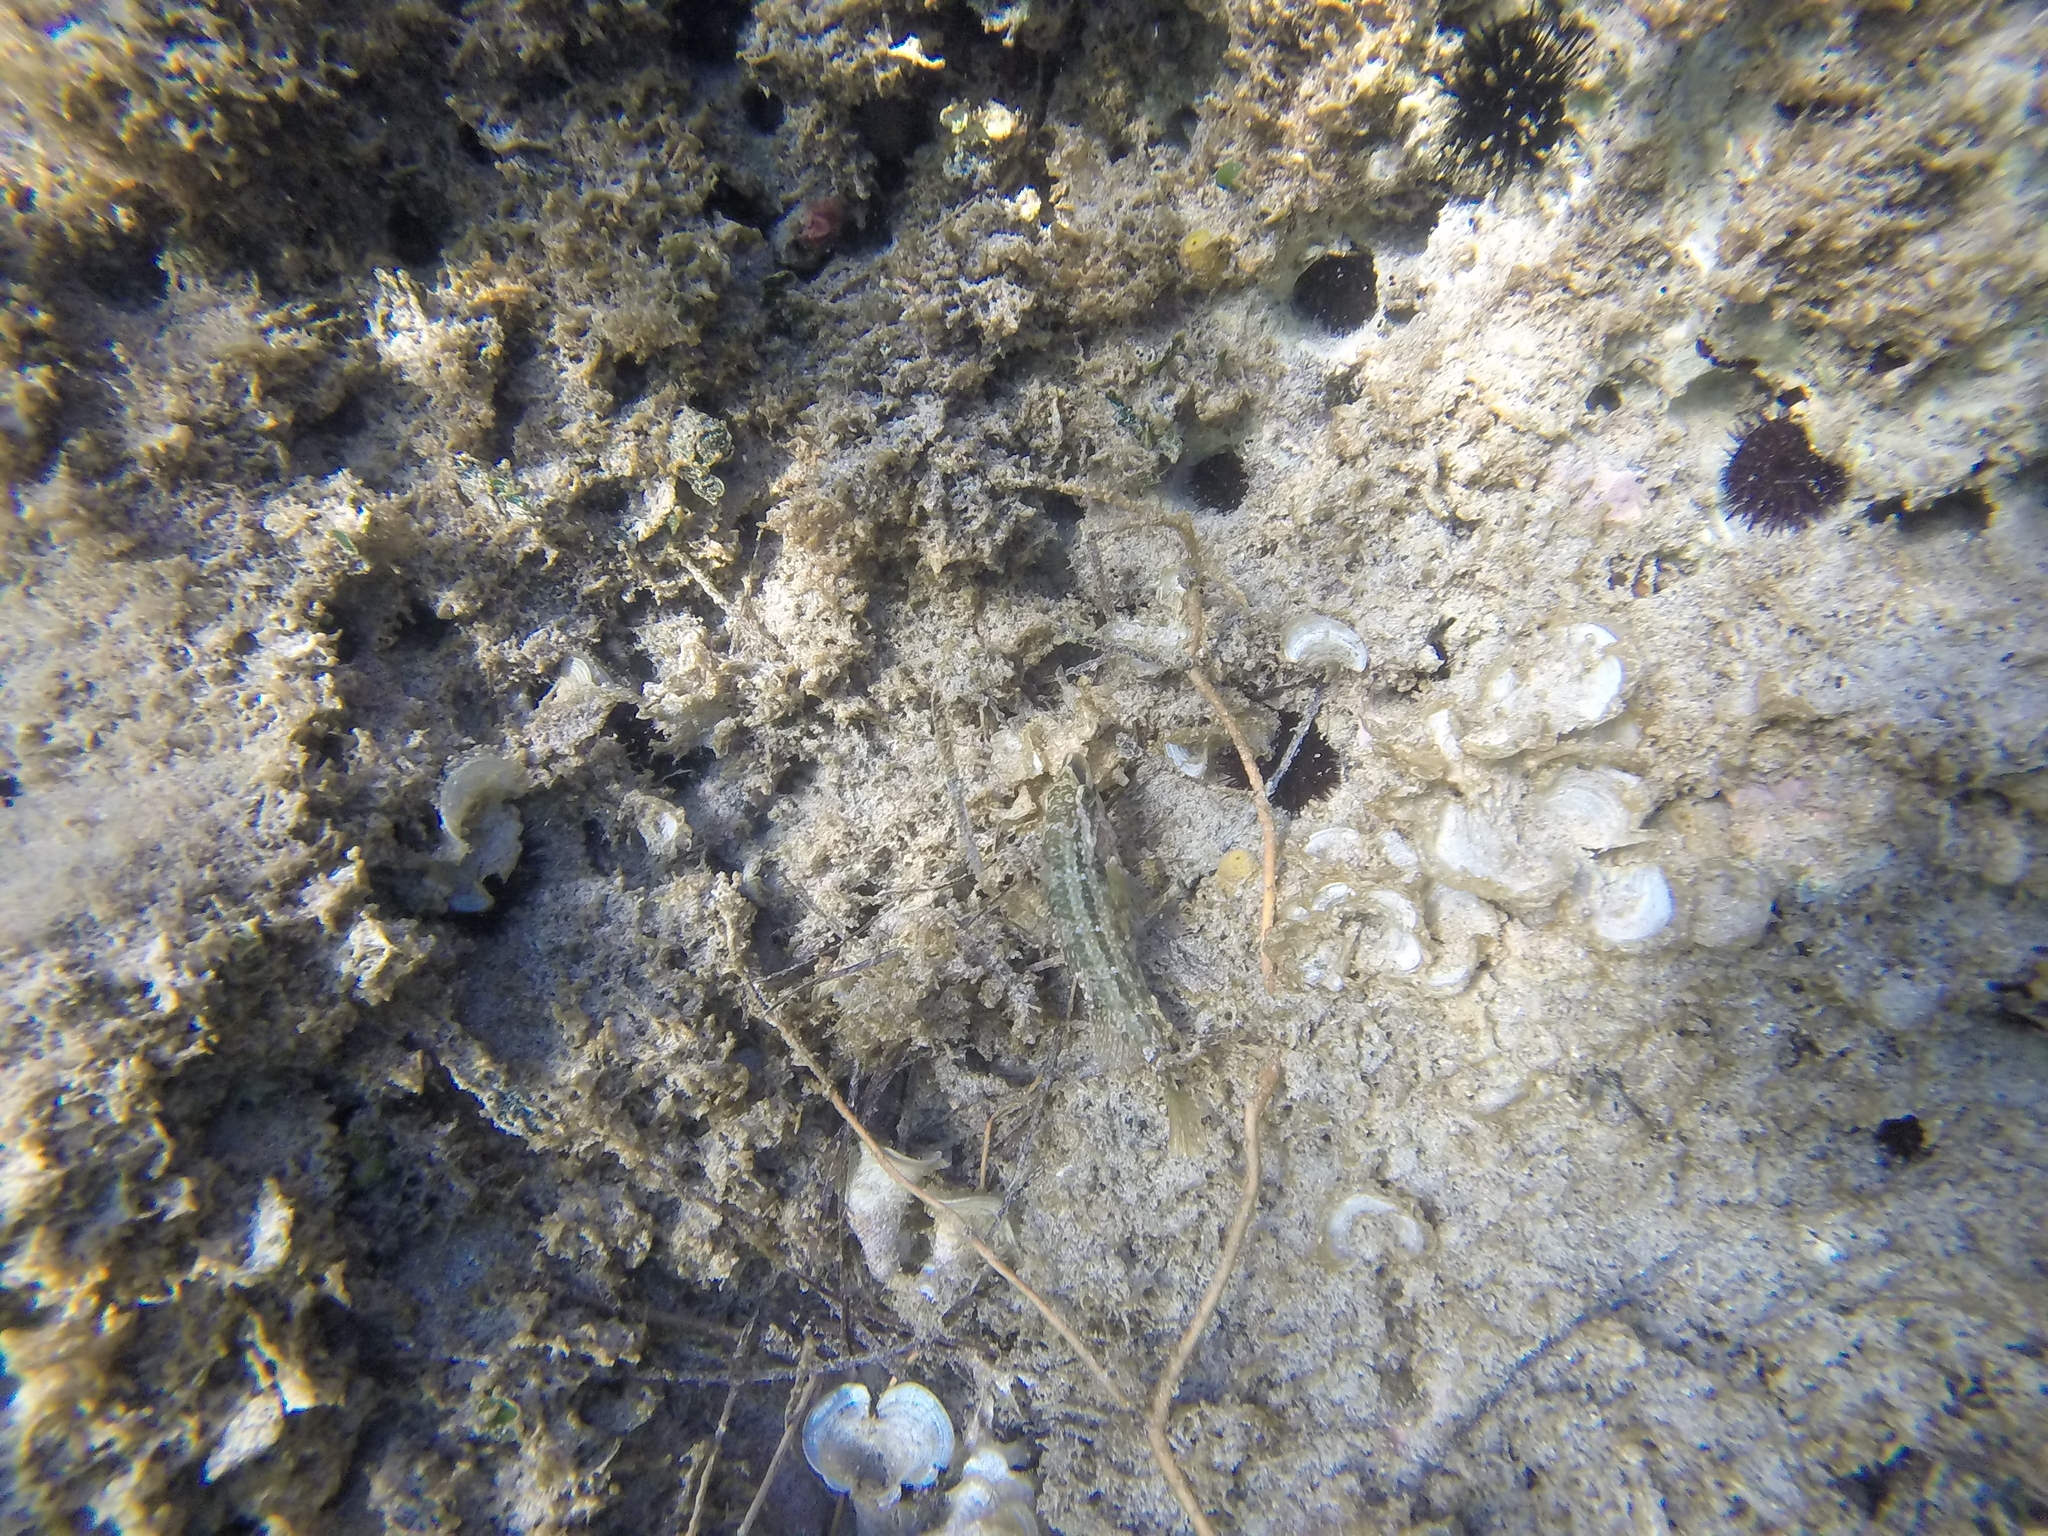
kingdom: Animalia
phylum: Chordata
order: Perciformes
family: Labridae
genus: Symphodus
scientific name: Symphodus roissali
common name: Five-spotted wrasse
